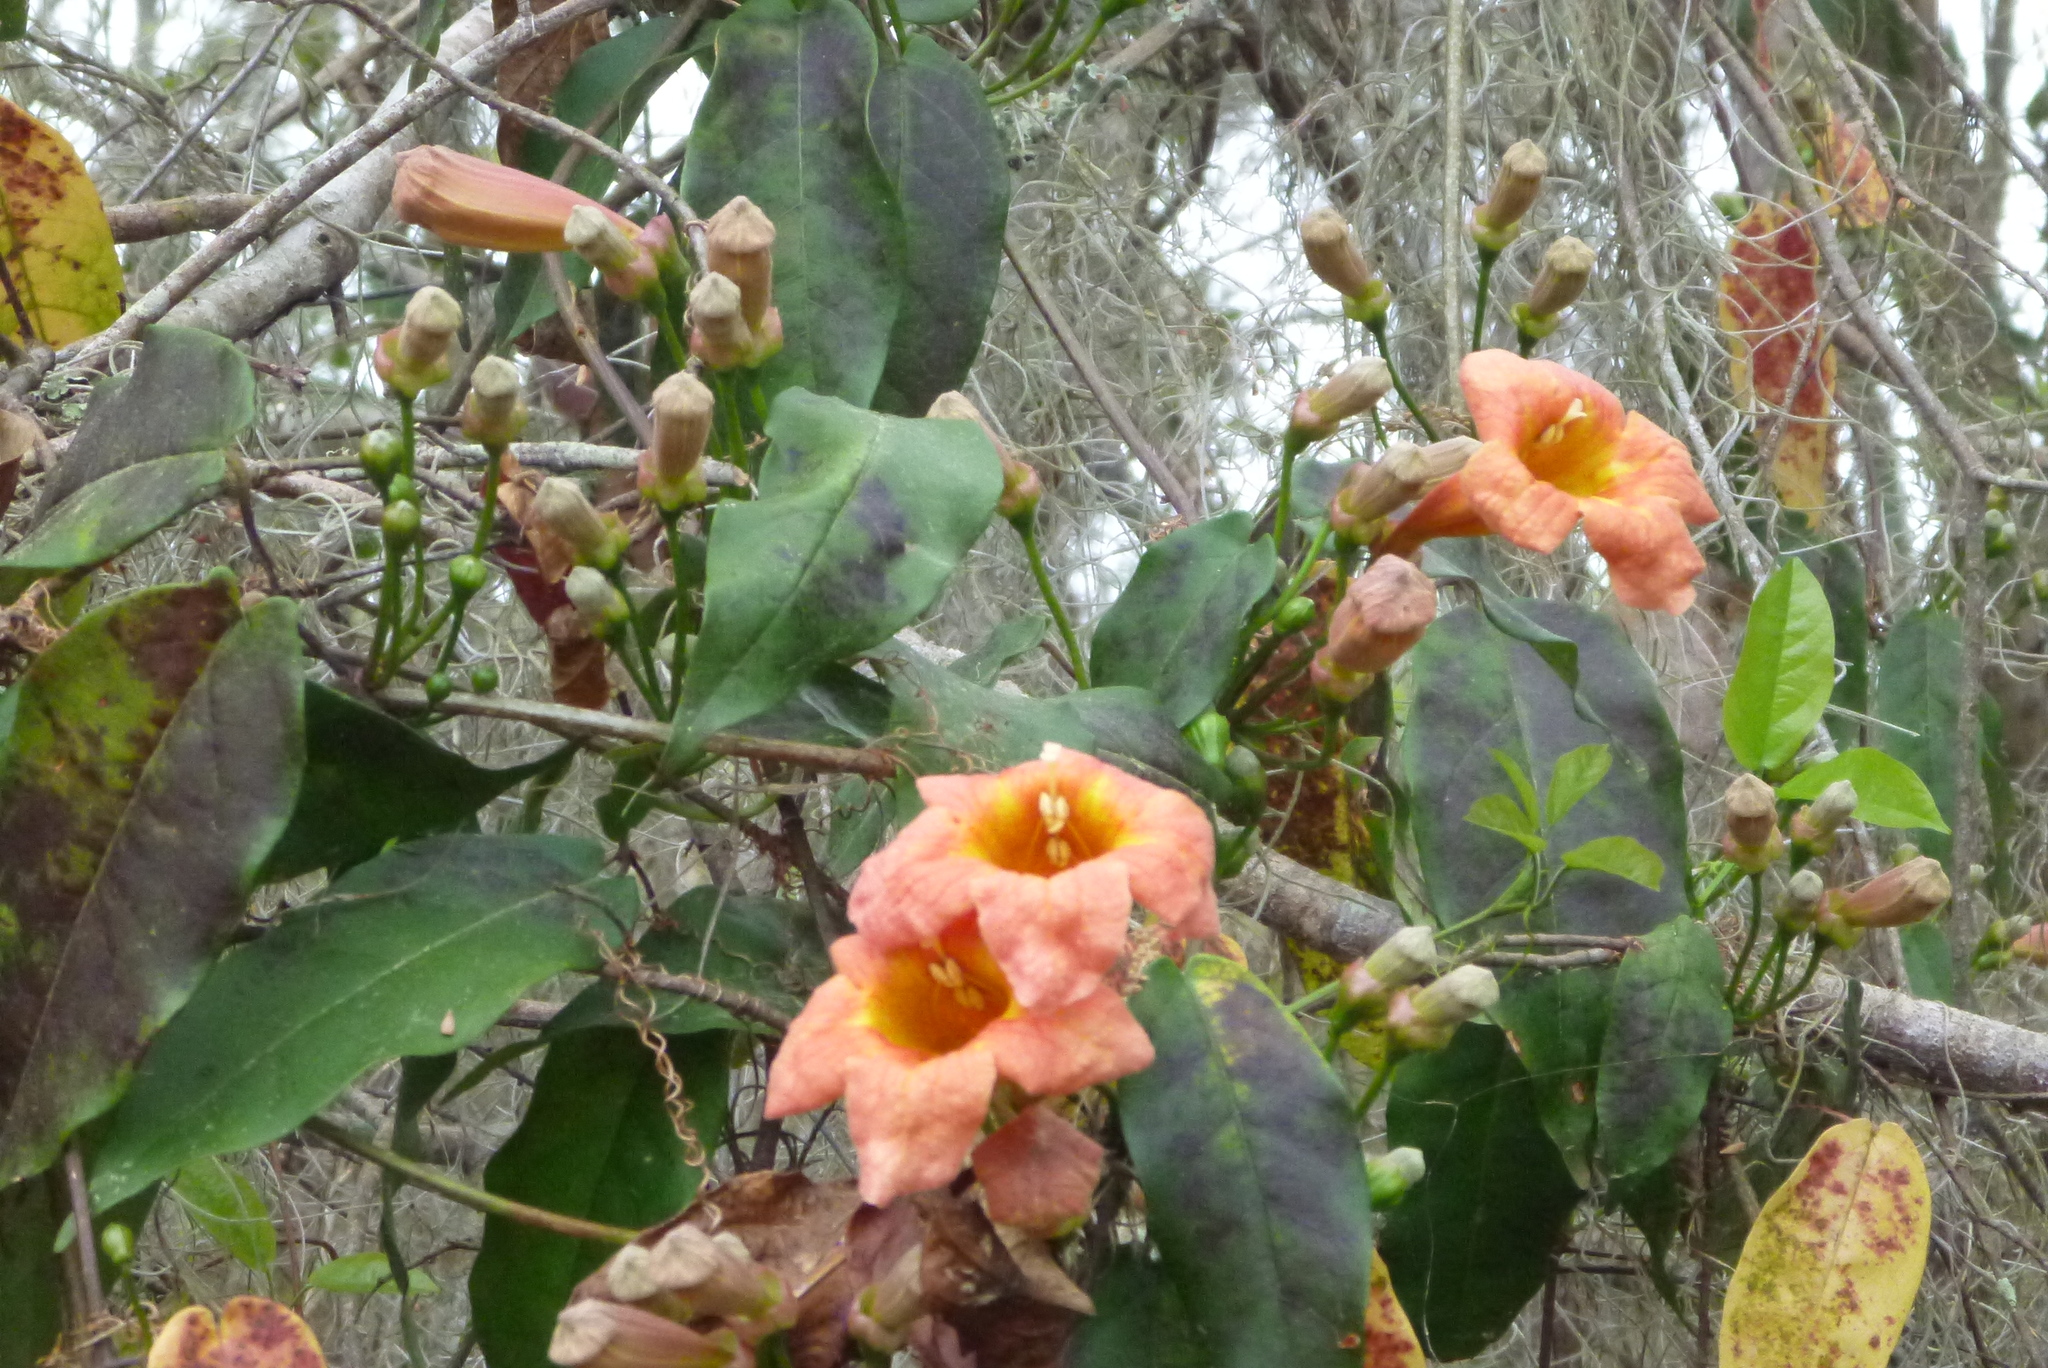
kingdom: Plantae
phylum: Tracheophyta
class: Magnoliopsida
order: Lamiales
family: Bignoniaceae
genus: Bignonia
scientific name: Bignonia capreolata
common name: Crossvine
